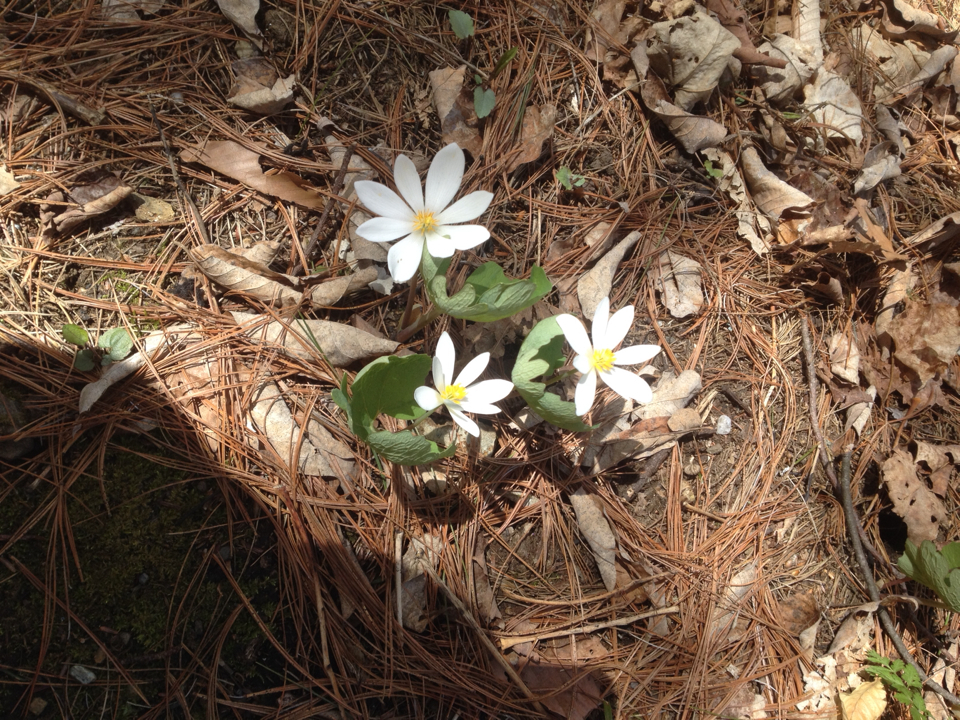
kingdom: Plantae
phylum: Tracheophyta
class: Magnoliopsida
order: Ranunculales
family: Papaveraceae
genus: Sanguinaria
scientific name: Sanguinaria canadensis
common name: Bloodroot
